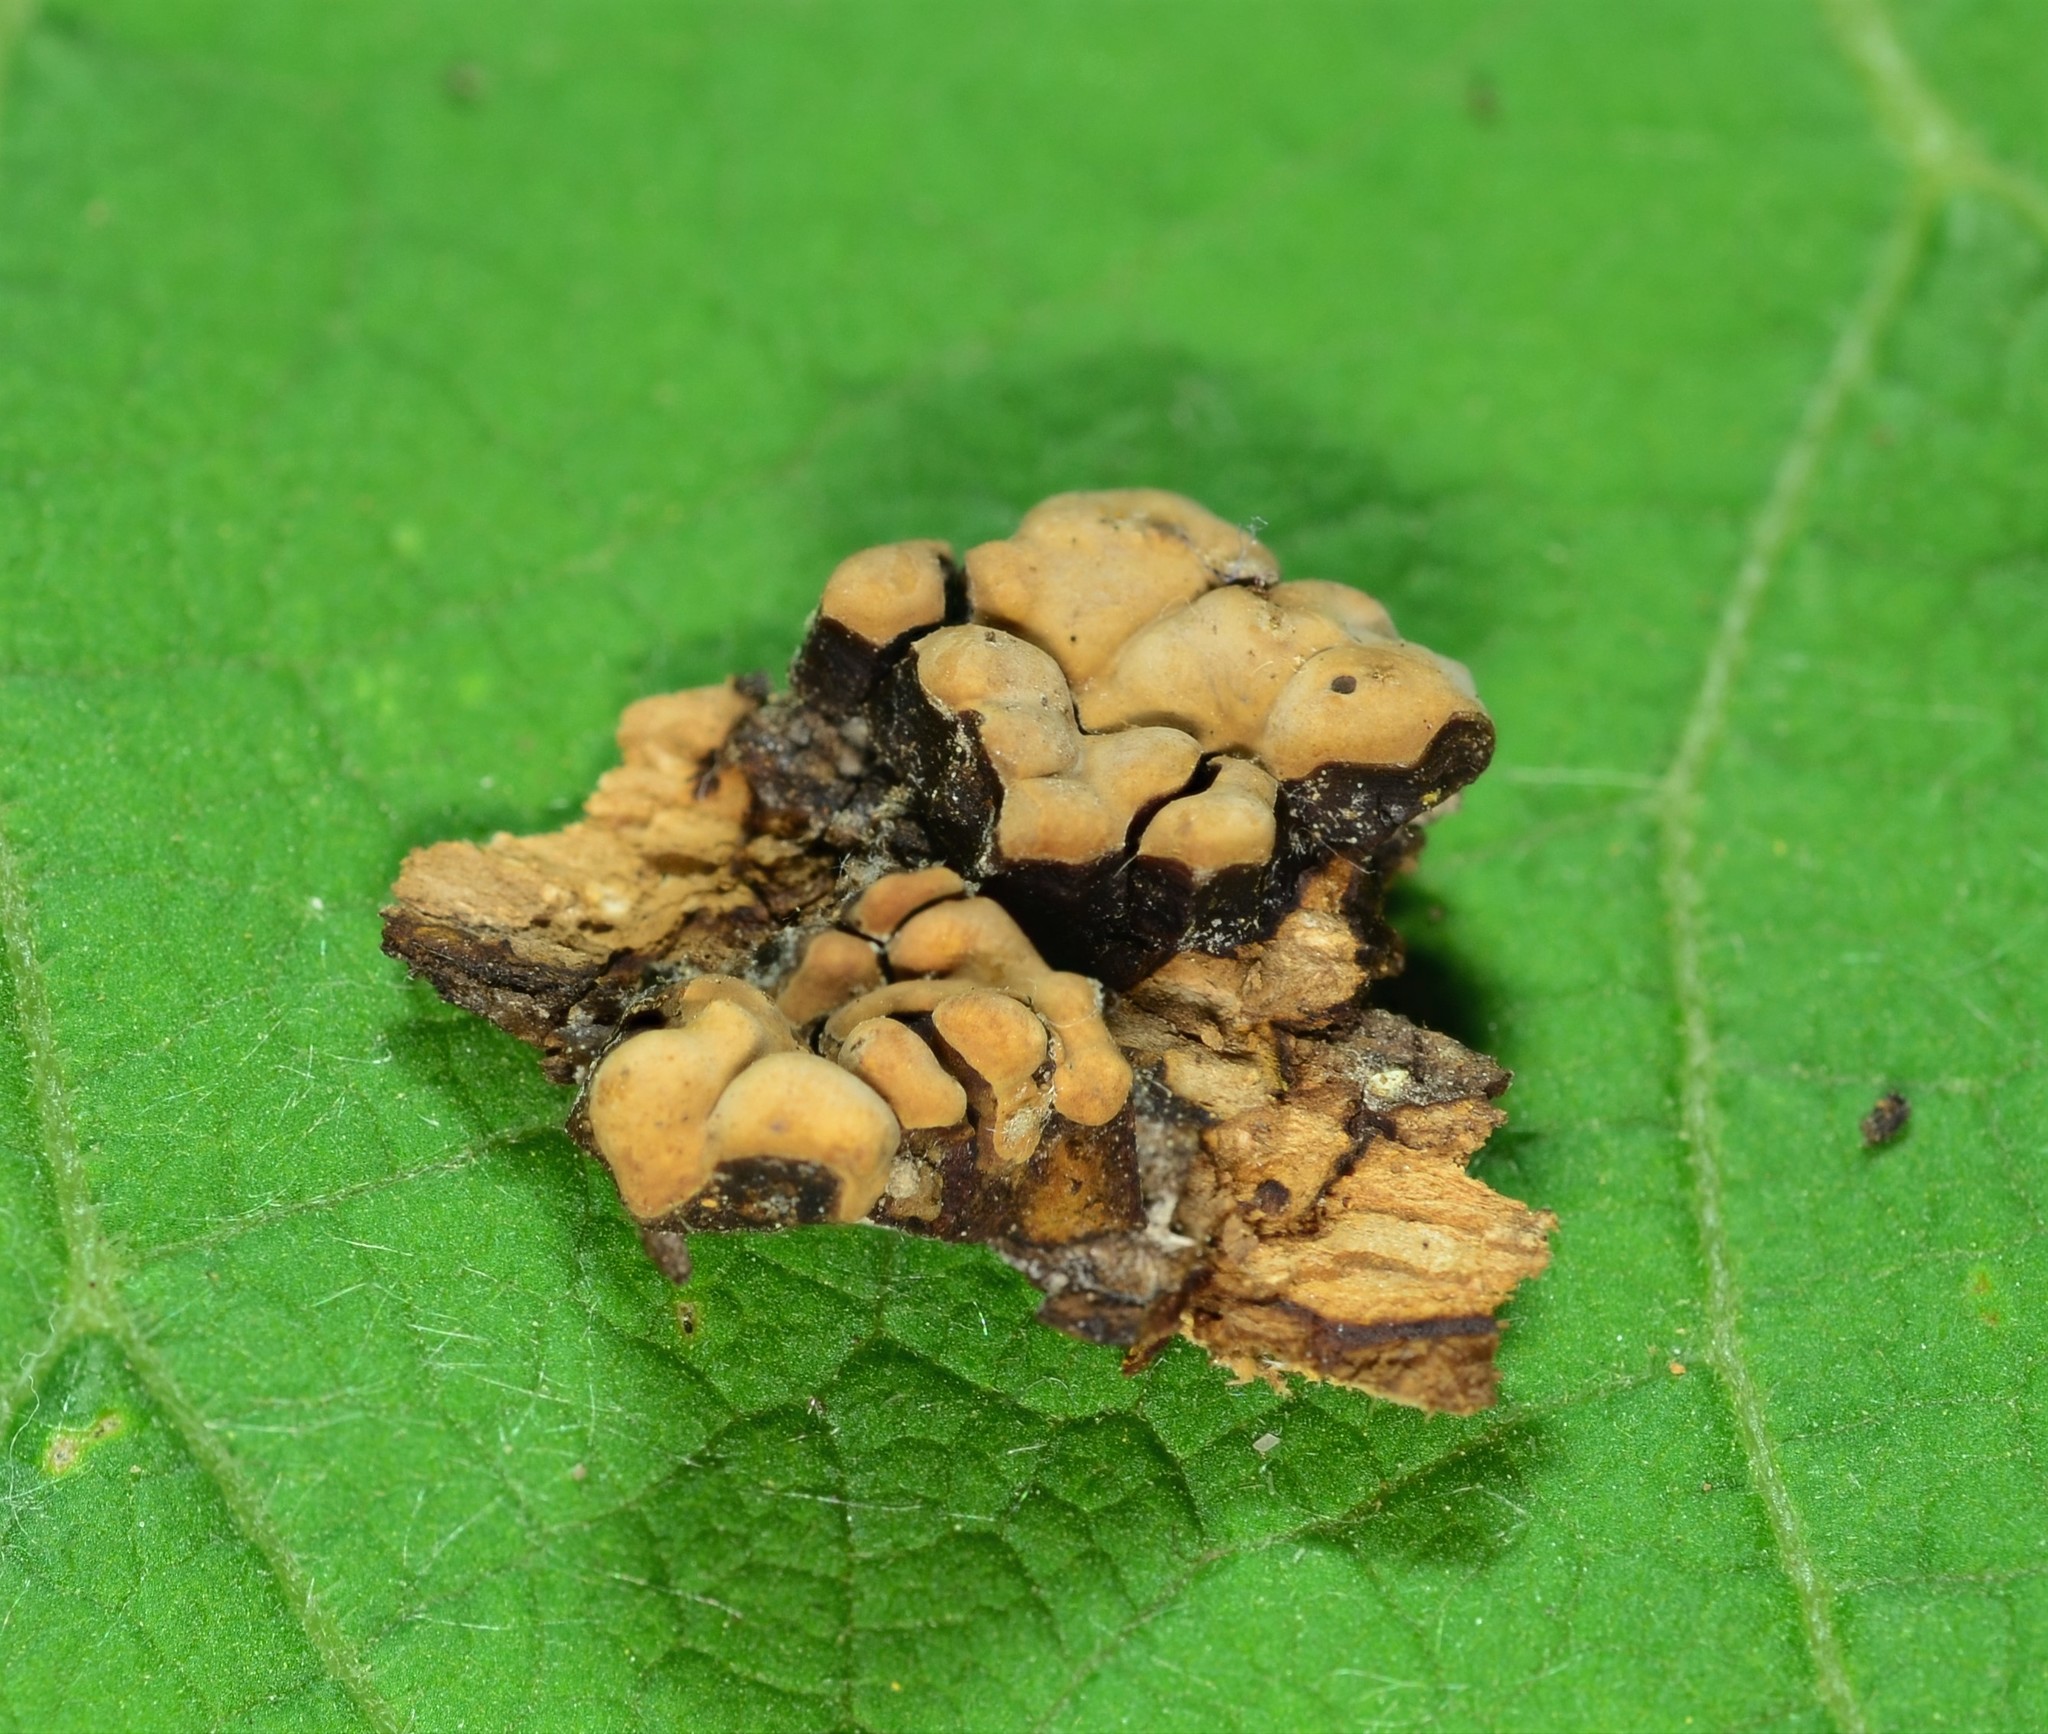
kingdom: Fungi
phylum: Basidiomycota
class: Agaricomycetes
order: Russulales
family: Stereaceae
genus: Xylobolus
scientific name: Xylobolus frustulatus
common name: Ceramic parchment
